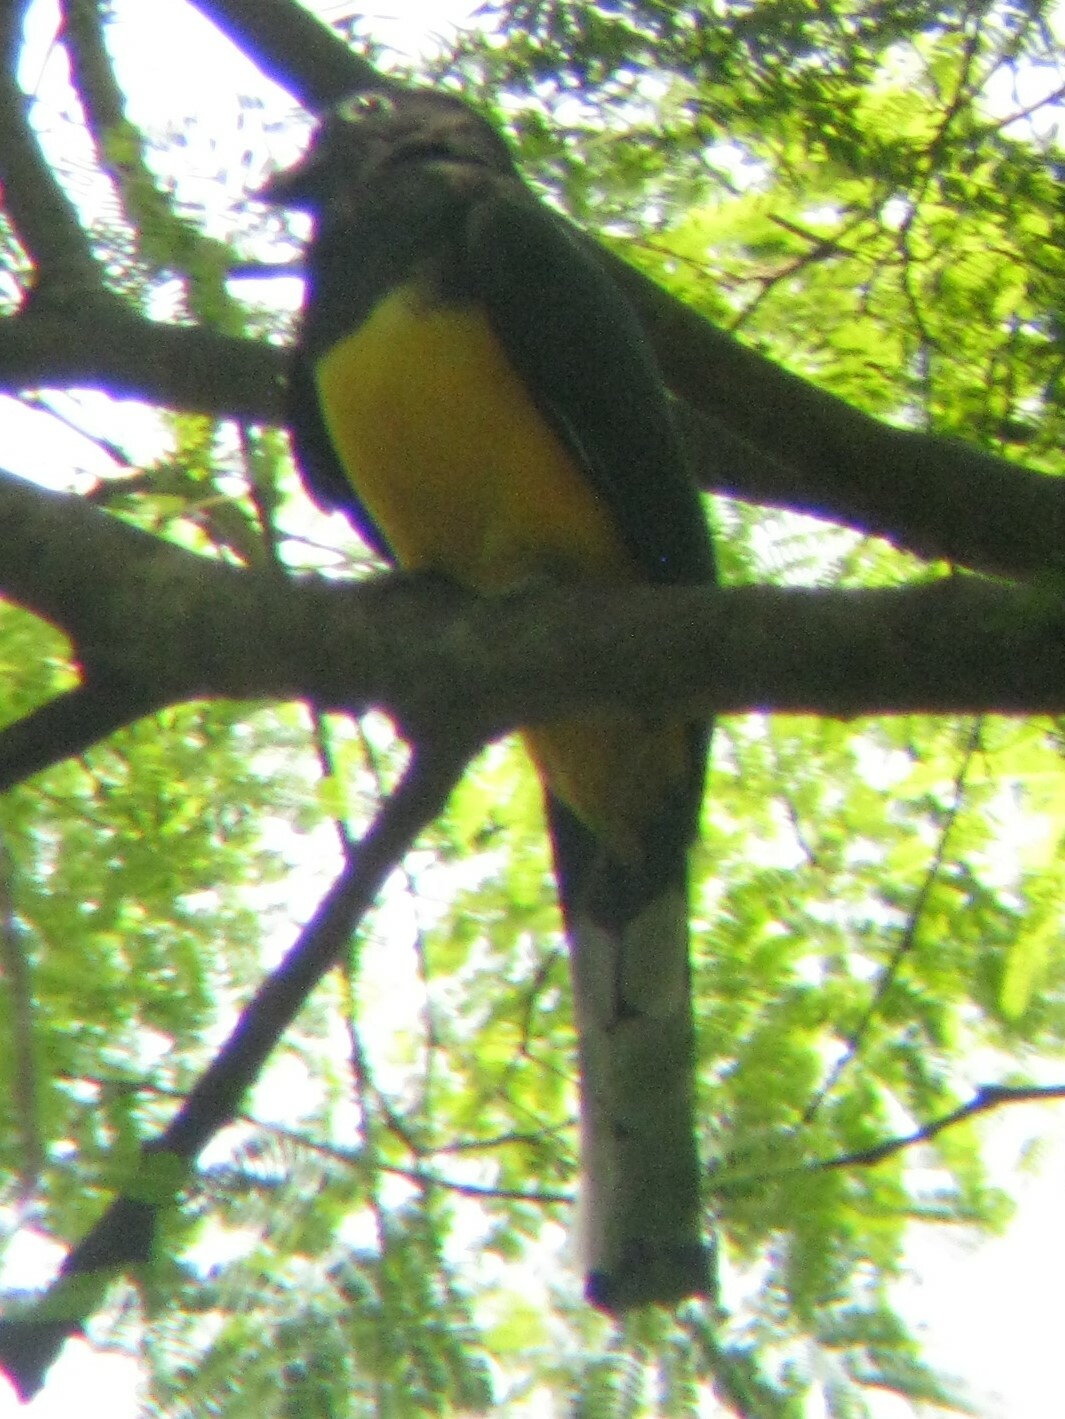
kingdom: Animalia
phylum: Chordata
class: Aves
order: Trogoniformes
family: Trogonidae
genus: Trogon
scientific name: Trogon melanocephalus
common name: Black-headed trogon
